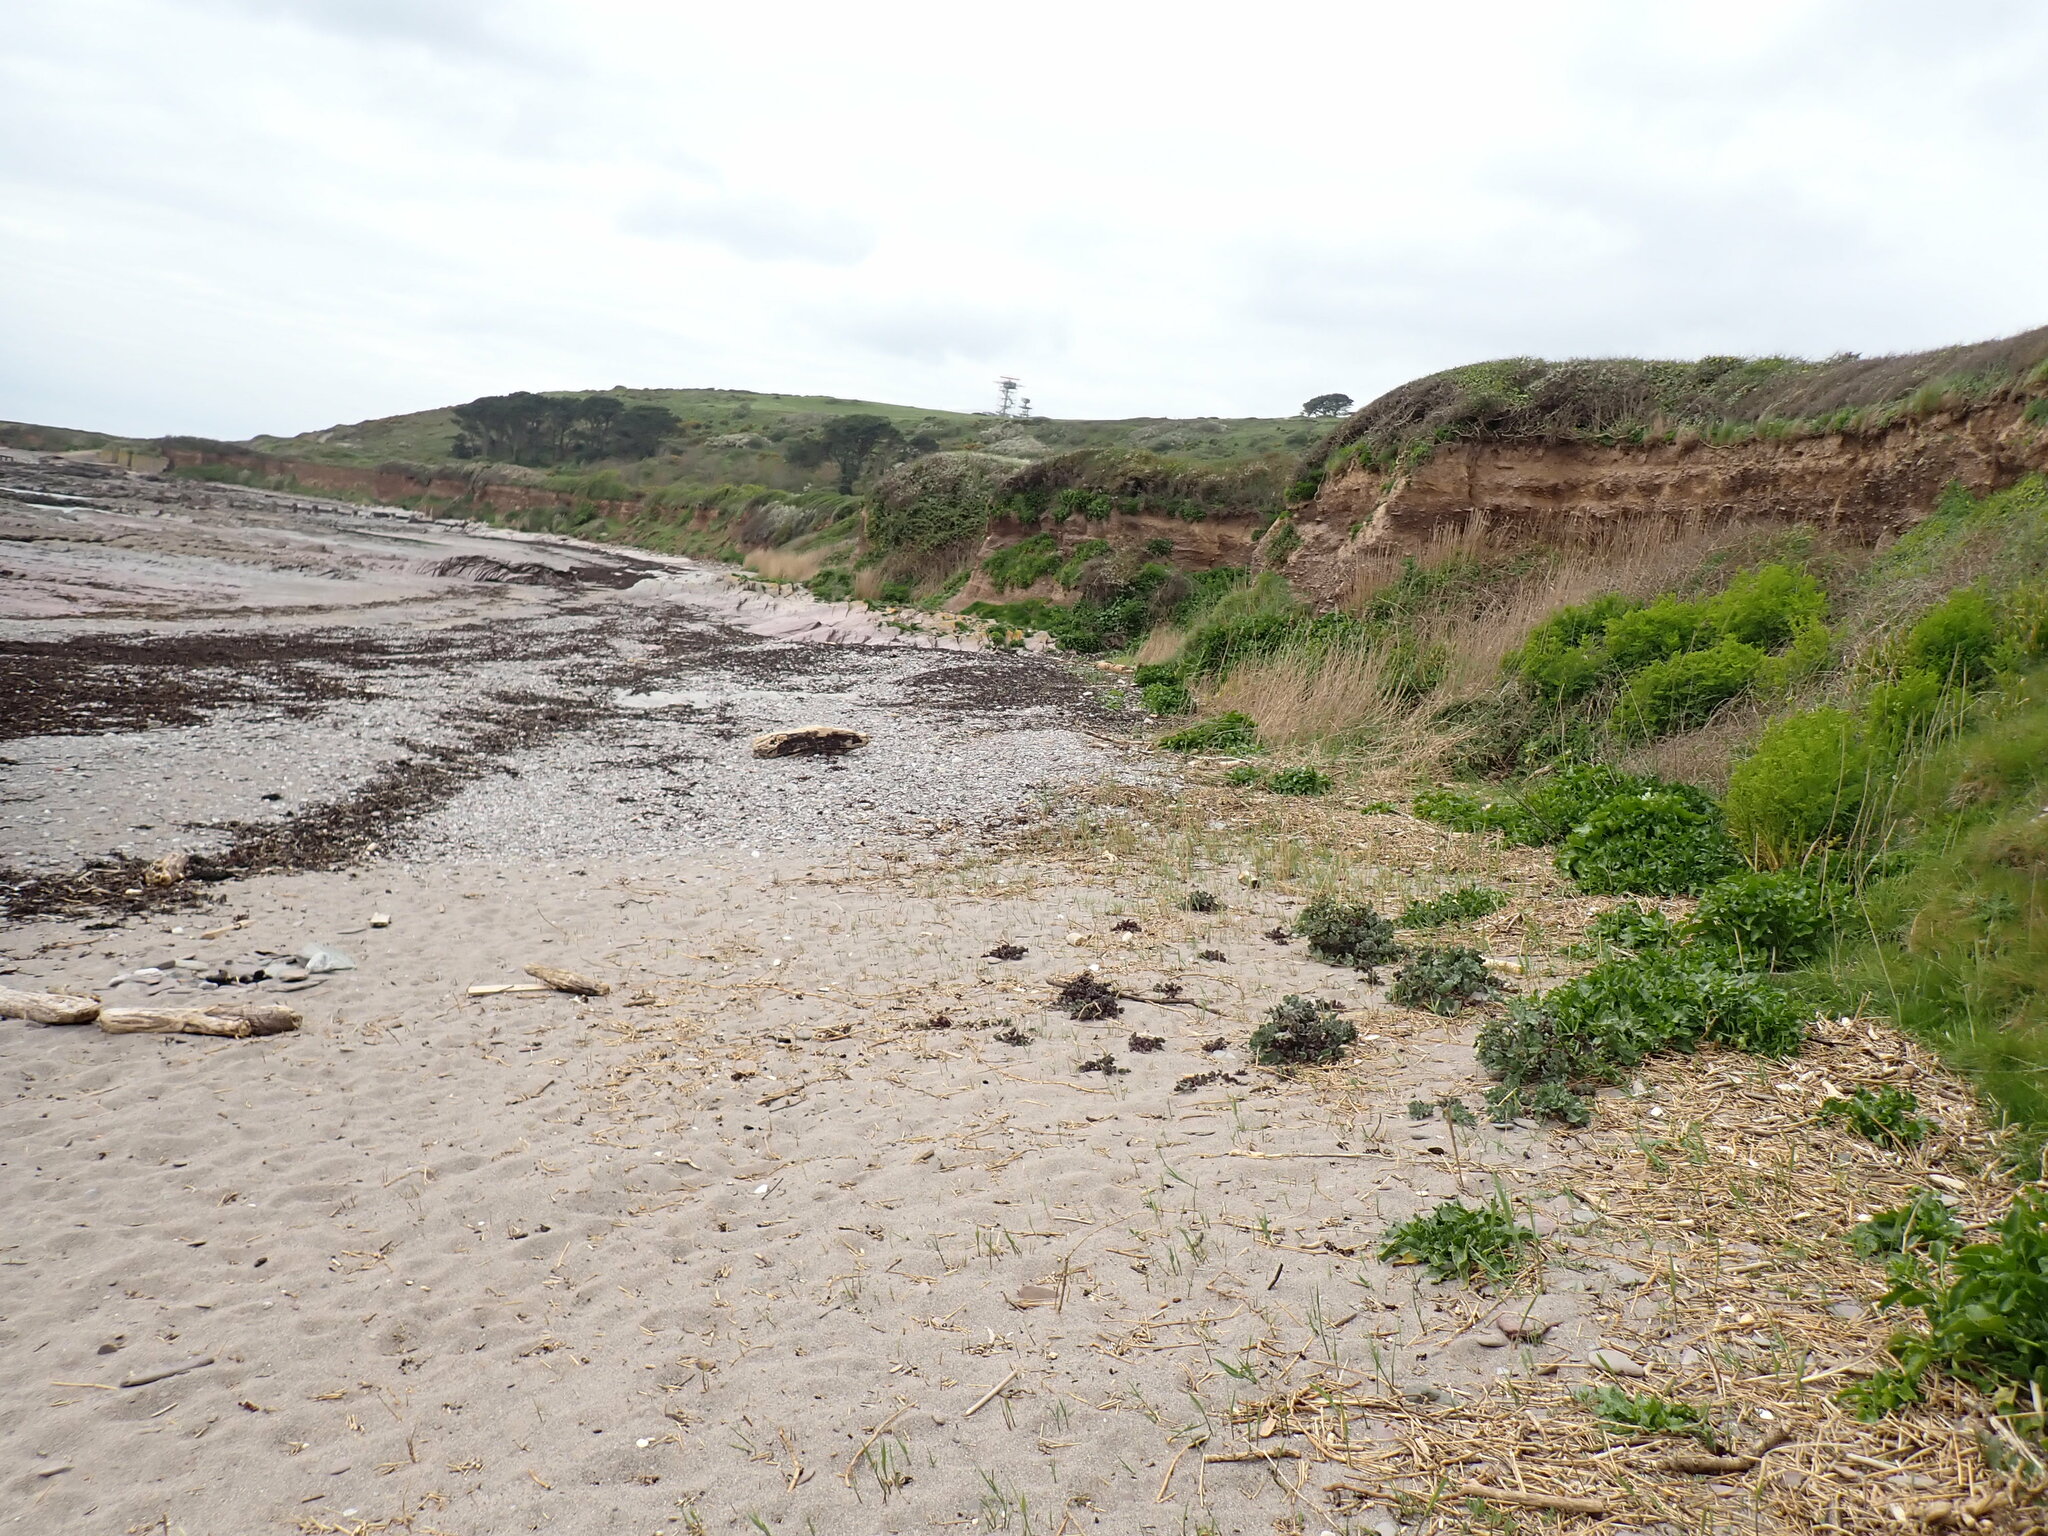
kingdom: Plantae
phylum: Tracheophyta
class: Magnoliopsida
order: Brassicales
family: Brassicaceae
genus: Crambe
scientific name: Crambe maritima
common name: Sea-kale
